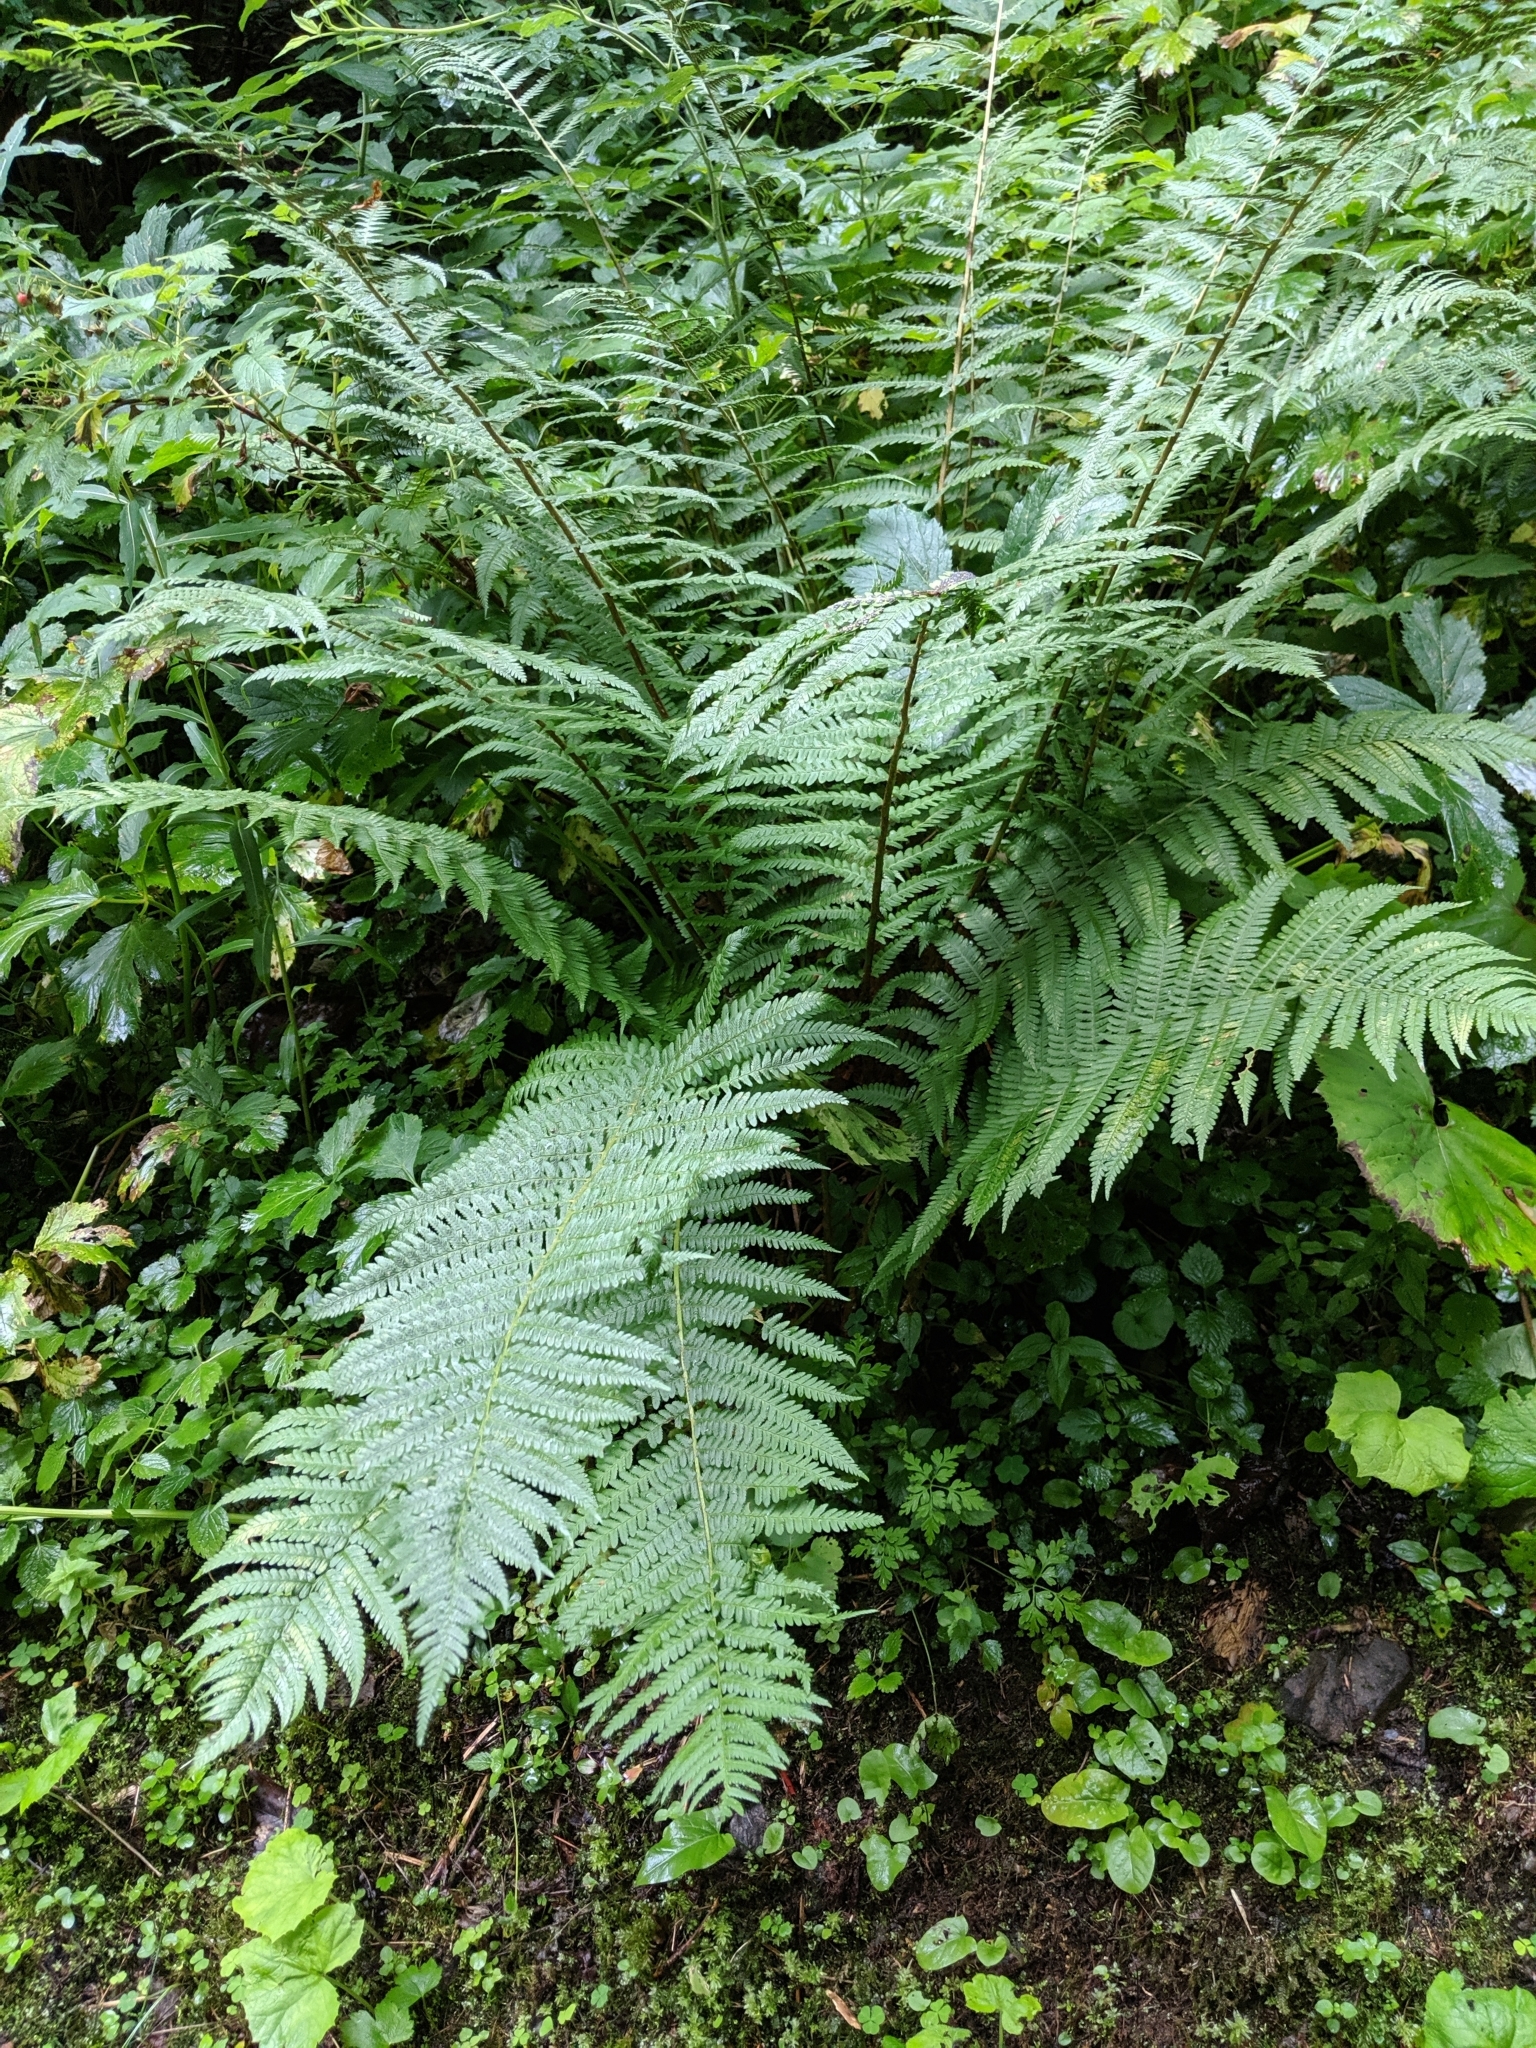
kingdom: Plantae
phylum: Tracheophyta
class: Polypodiopsida
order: Polypodiales
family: Dryopteridaceae
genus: Dryopteris
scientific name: Dryopteris filix-mas
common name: Male fern
